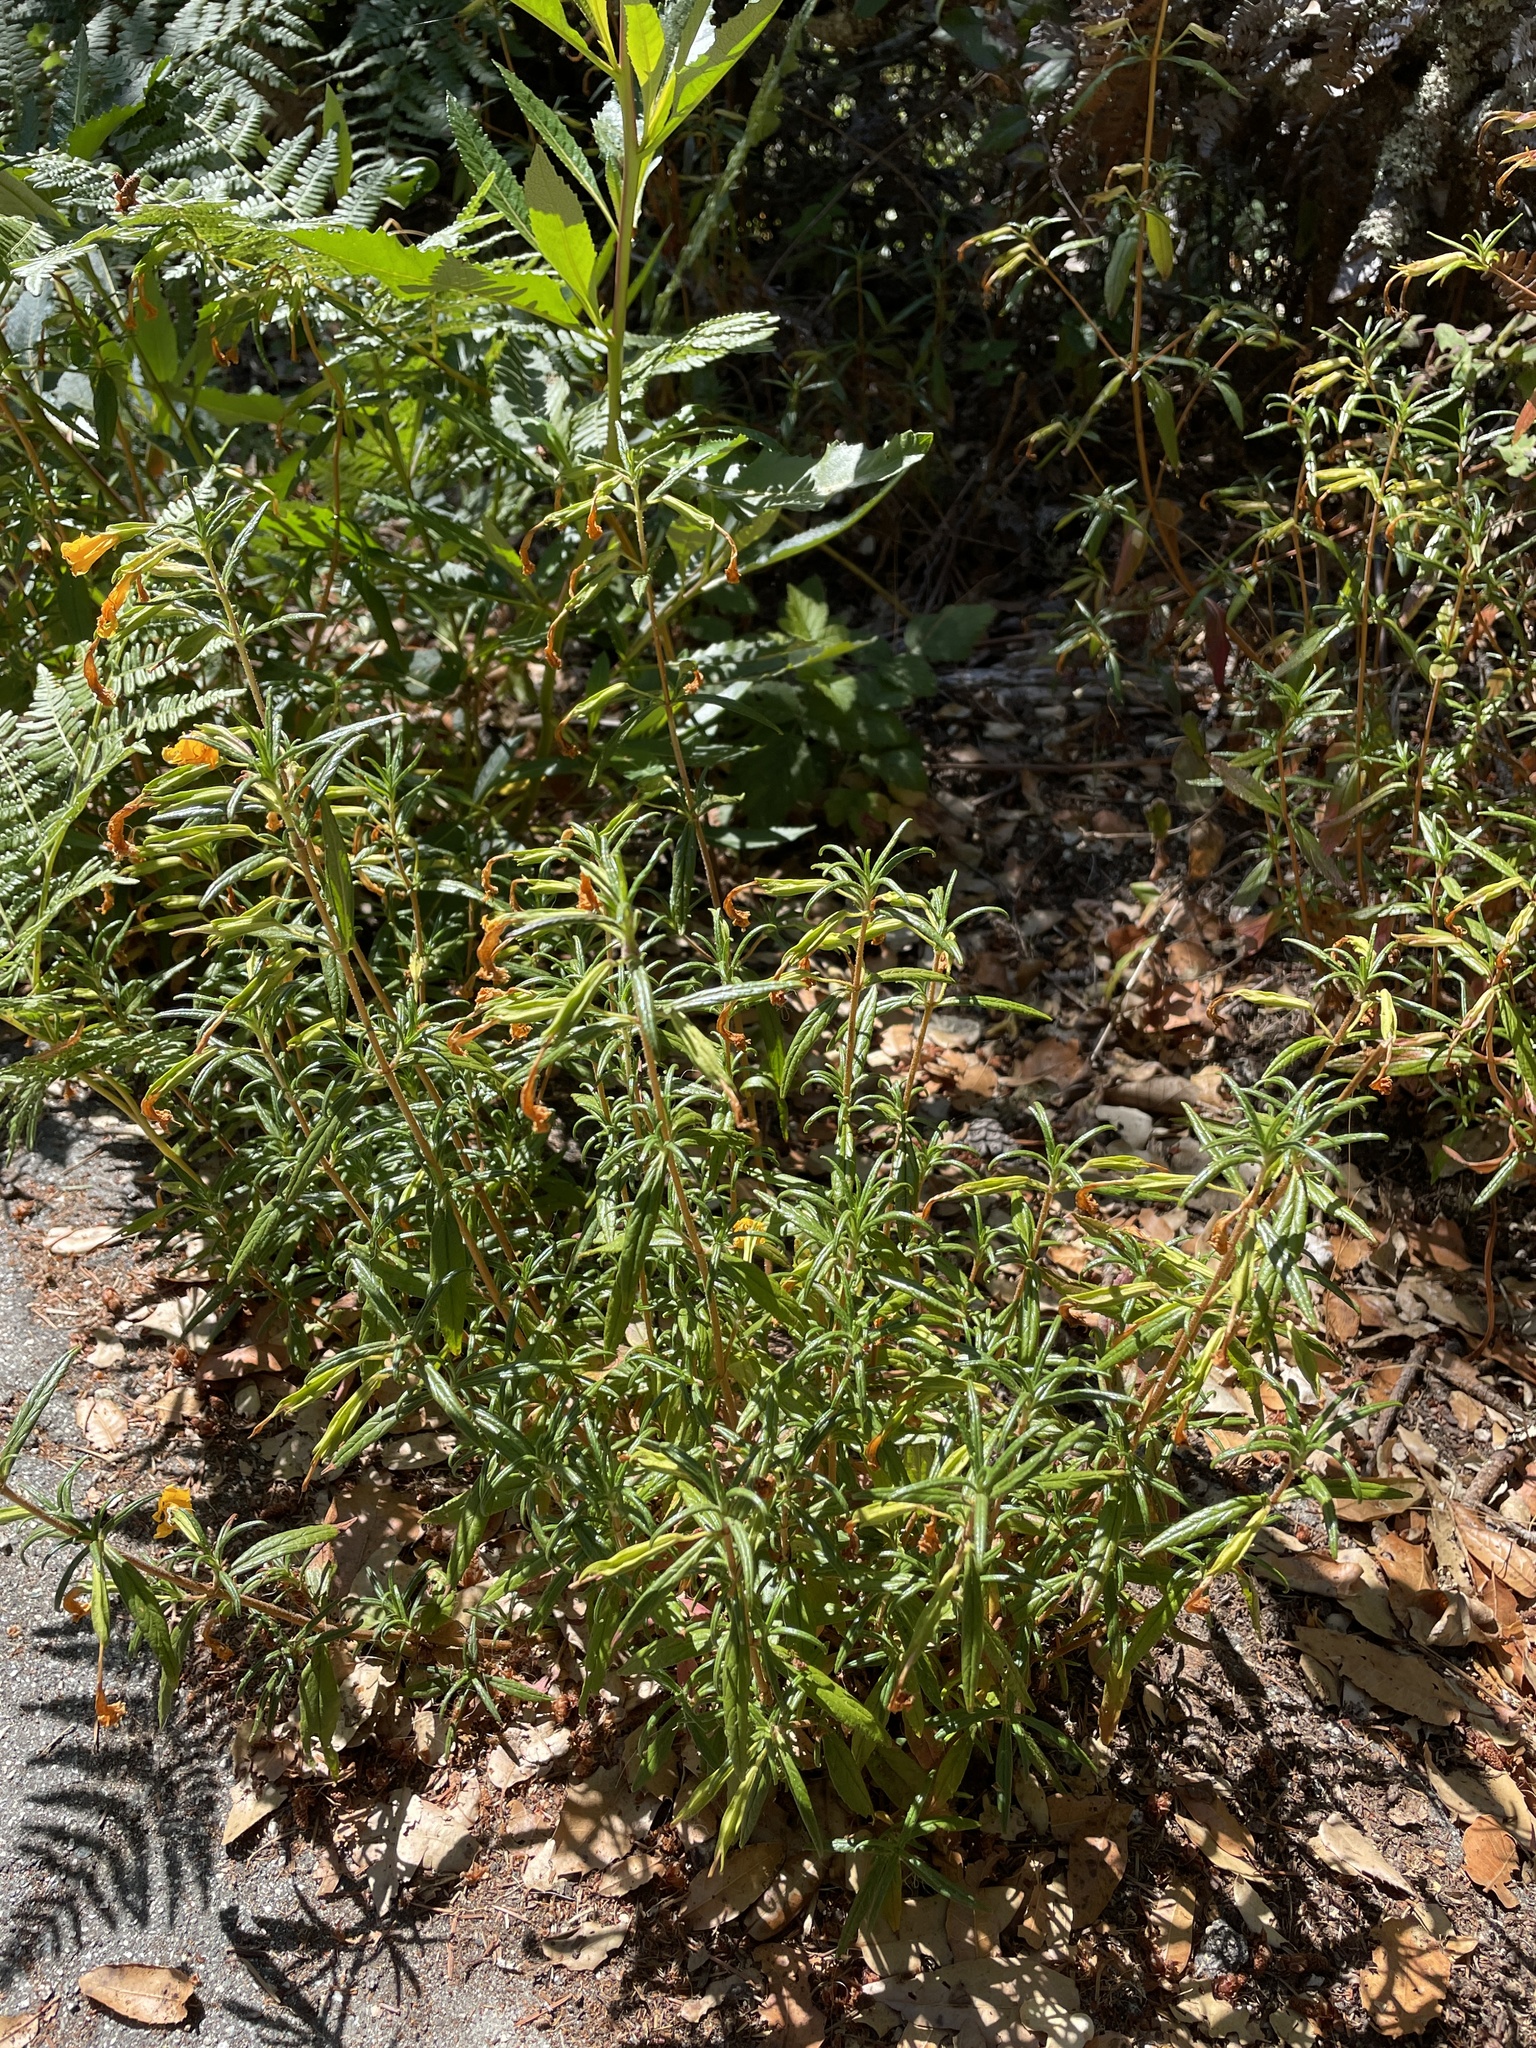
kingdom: Plantae
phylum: Tracheophyta
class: Magnoliopsida
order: Lamiales
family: Phrymaceae
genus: Diplacus
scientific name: Diplacus aurantiacus
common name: Bush monkey-flower
